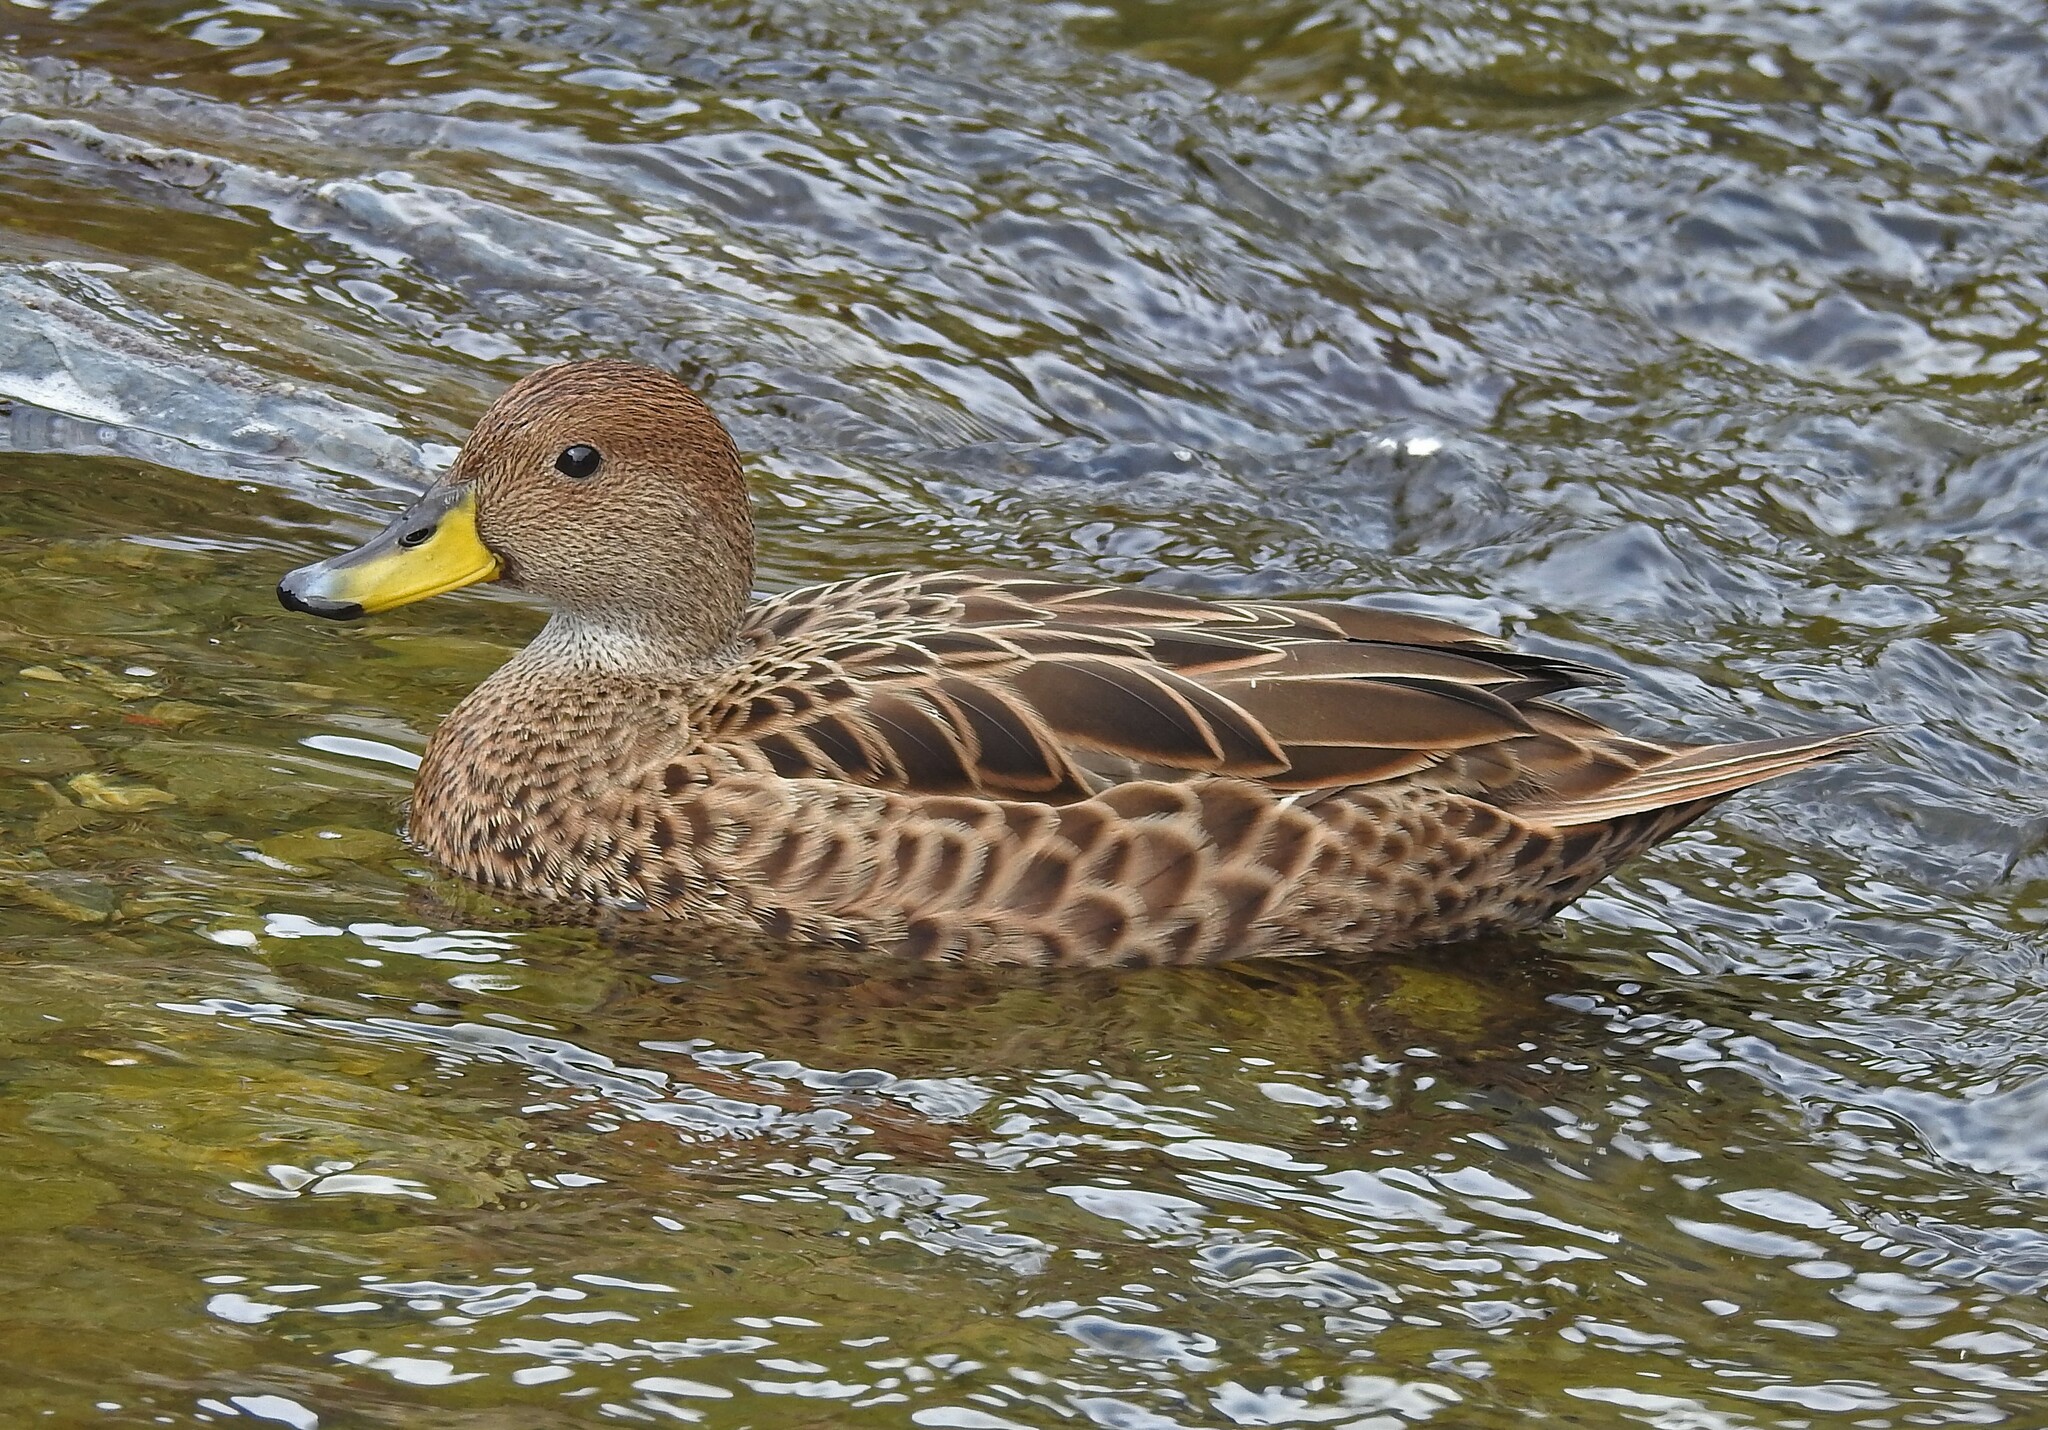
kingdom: Animalia
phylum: Chordata
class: Aves
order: Anseriformes
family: Anatidae
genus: Anas
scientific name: Anas georgica
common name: Yellow-billed pintail
